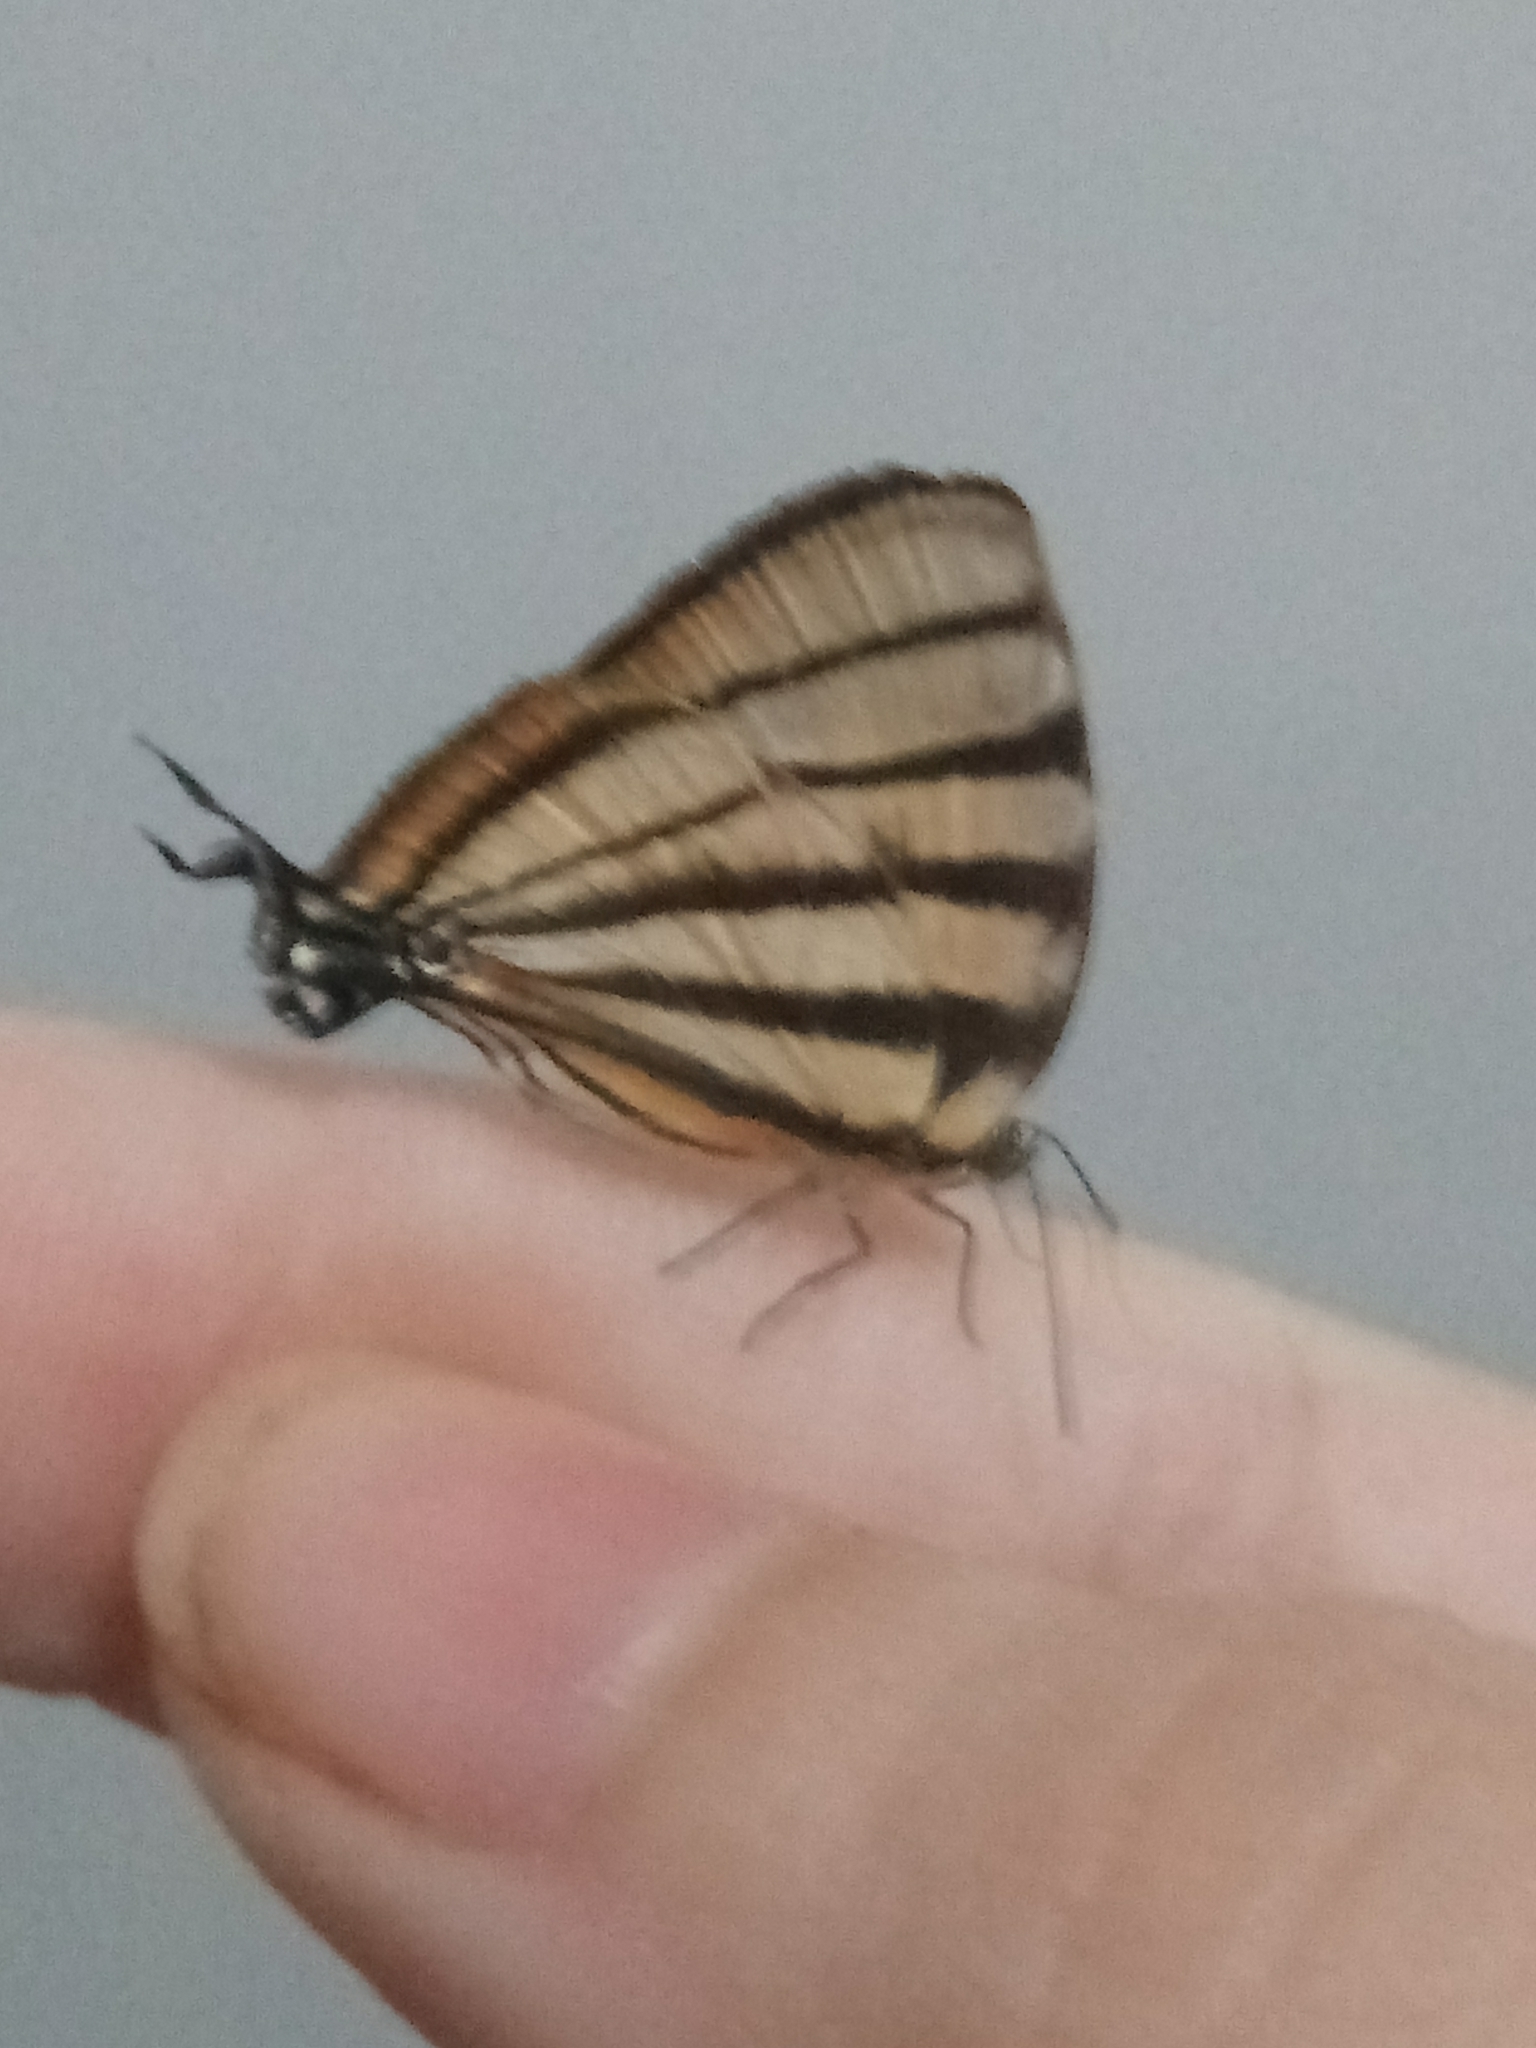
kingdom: Animalia
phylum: Arthropoda
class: Insecta
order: Lepidoptera
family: Lycaenidae
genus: Arawacus
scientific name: Arawacus separata
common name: Separated stripestreak
